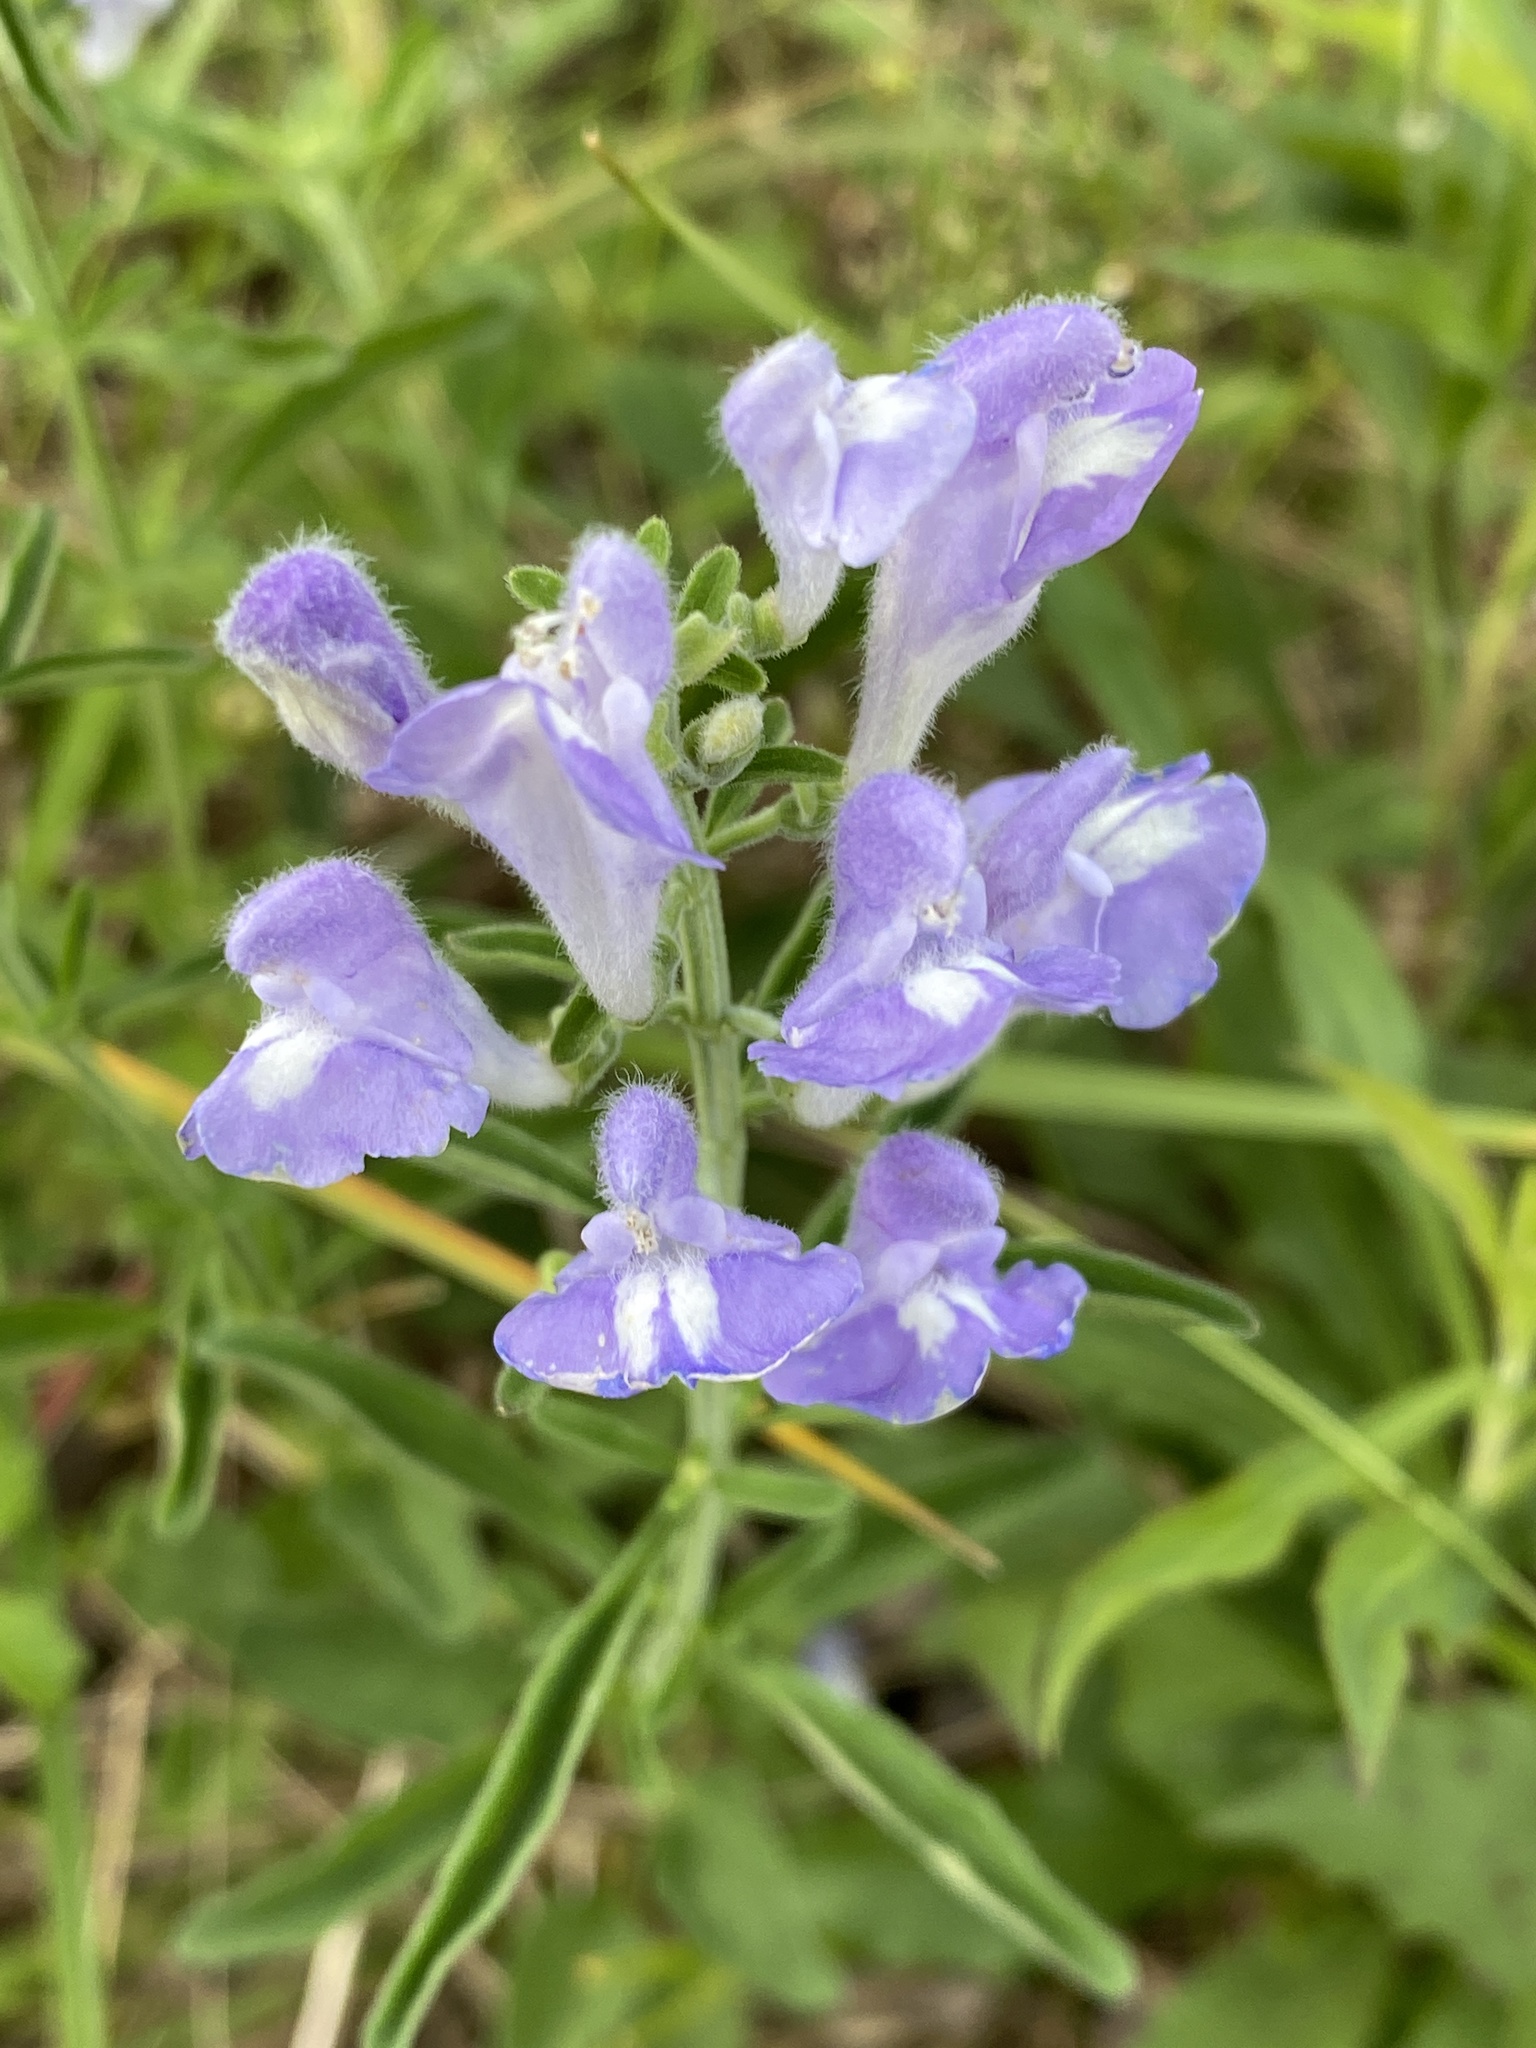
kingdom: Plantae
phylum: Tracheophyta
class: Magnoliopsida
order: Lamiales
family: Lamiaceae
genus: Scutellaria
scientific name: Scutellaria integrifolia
